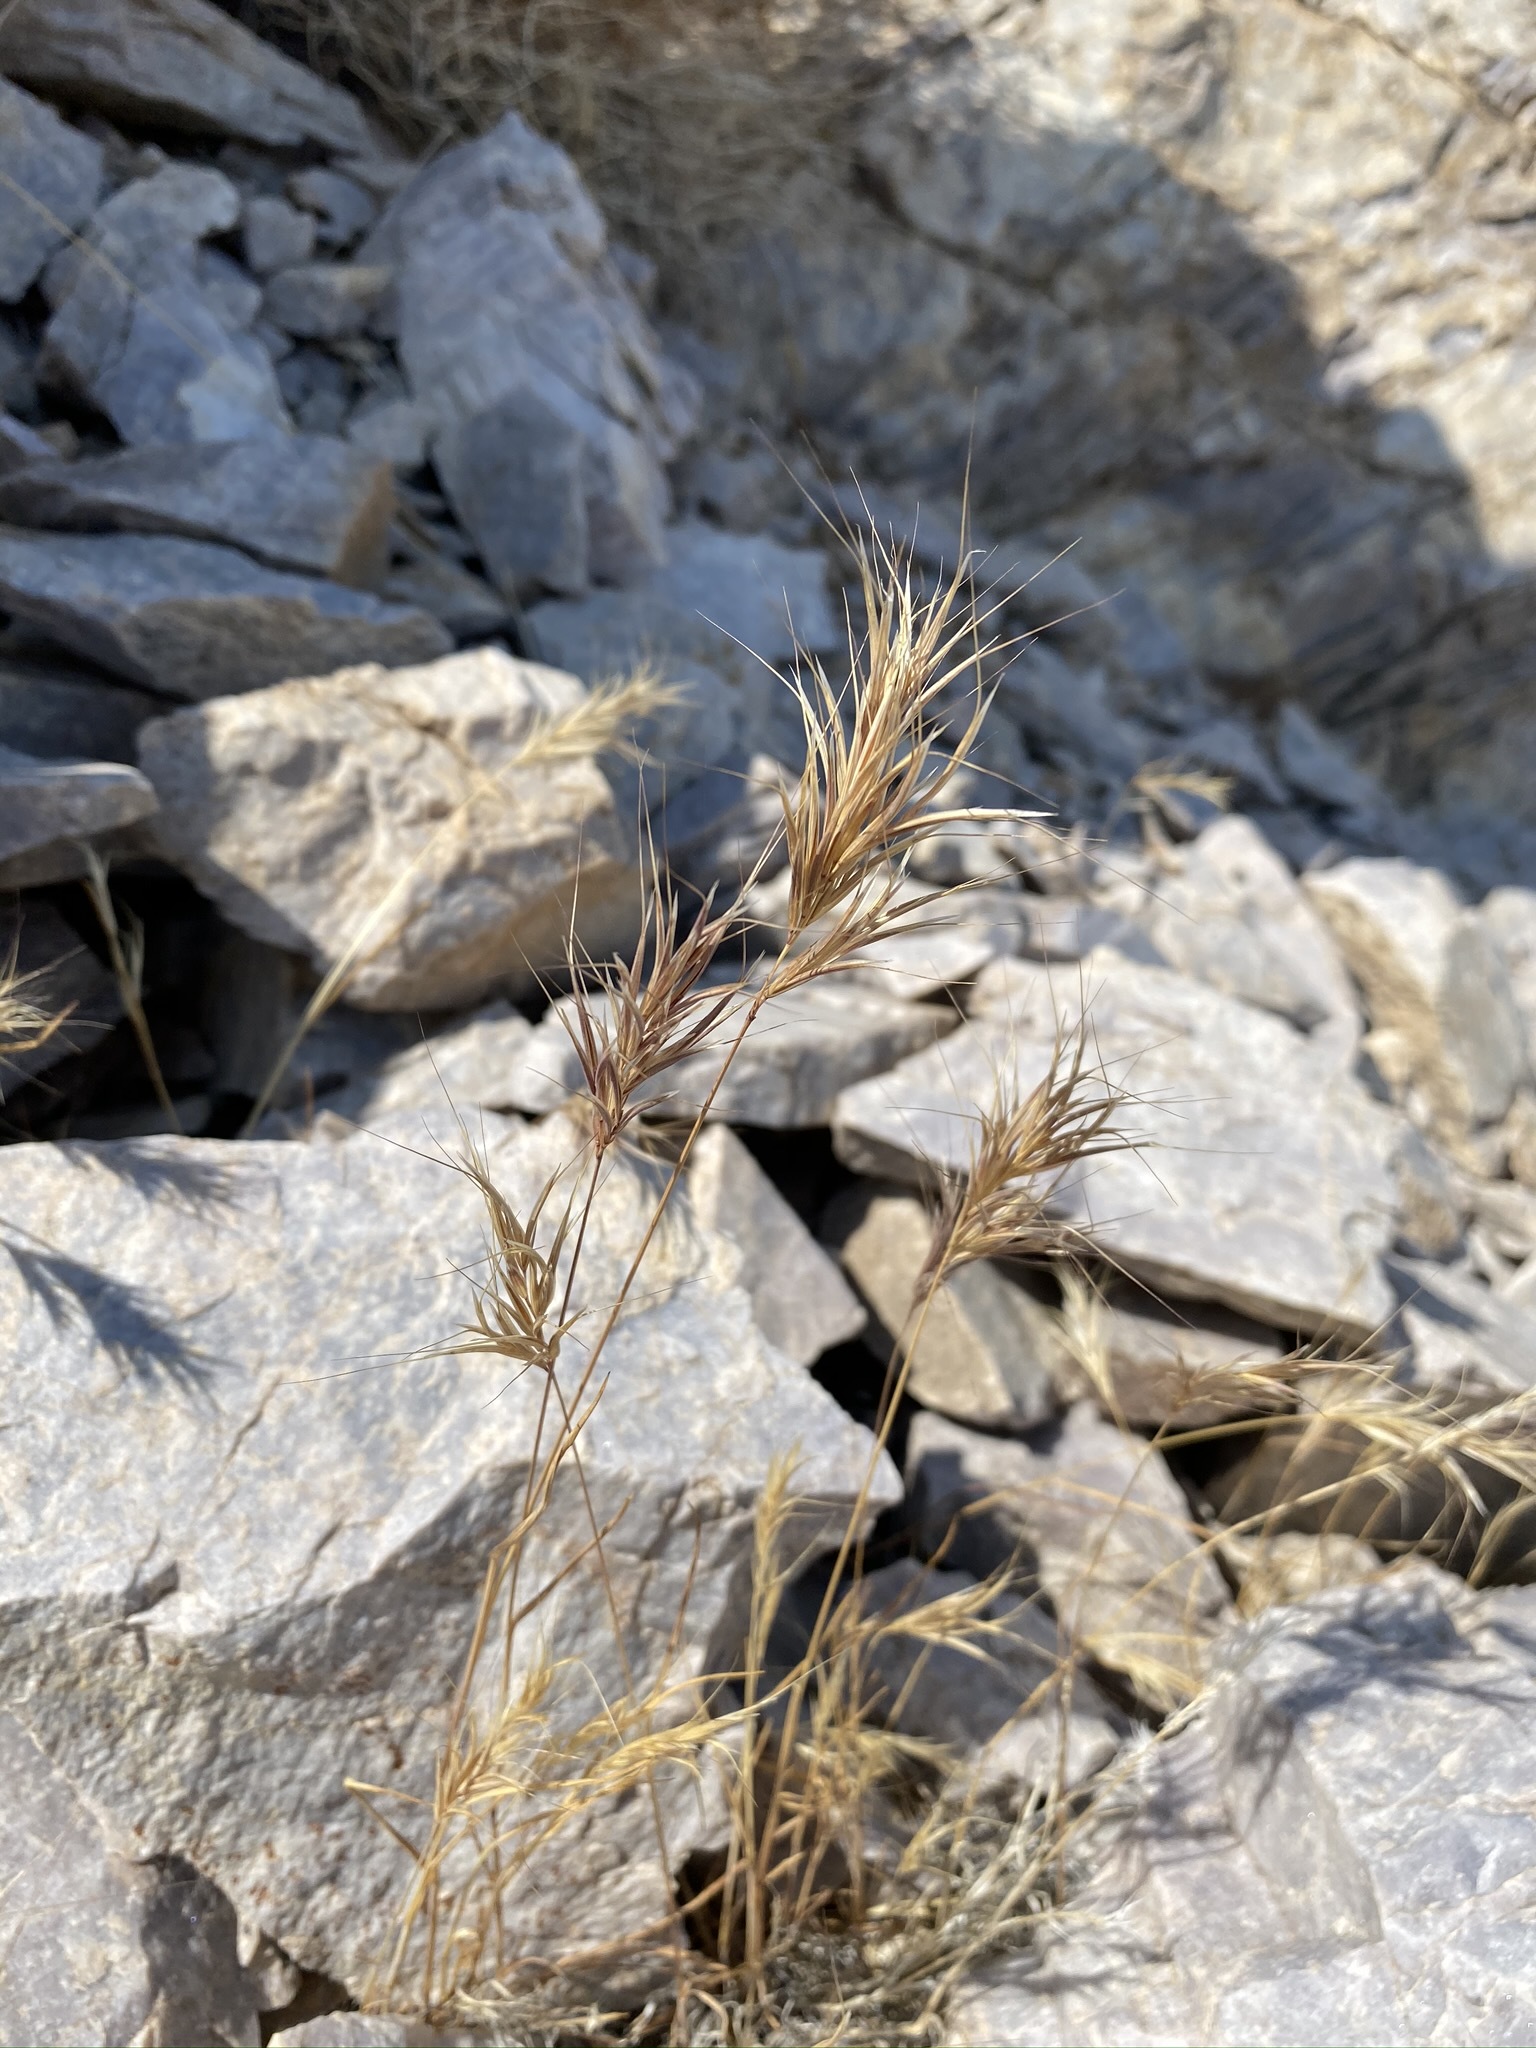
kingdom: Plantae
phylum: Tracheophyta
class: Liliopsida
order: Poales
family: Poaceae
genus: Bromus
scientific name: Bromus rubens
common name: Red brome
